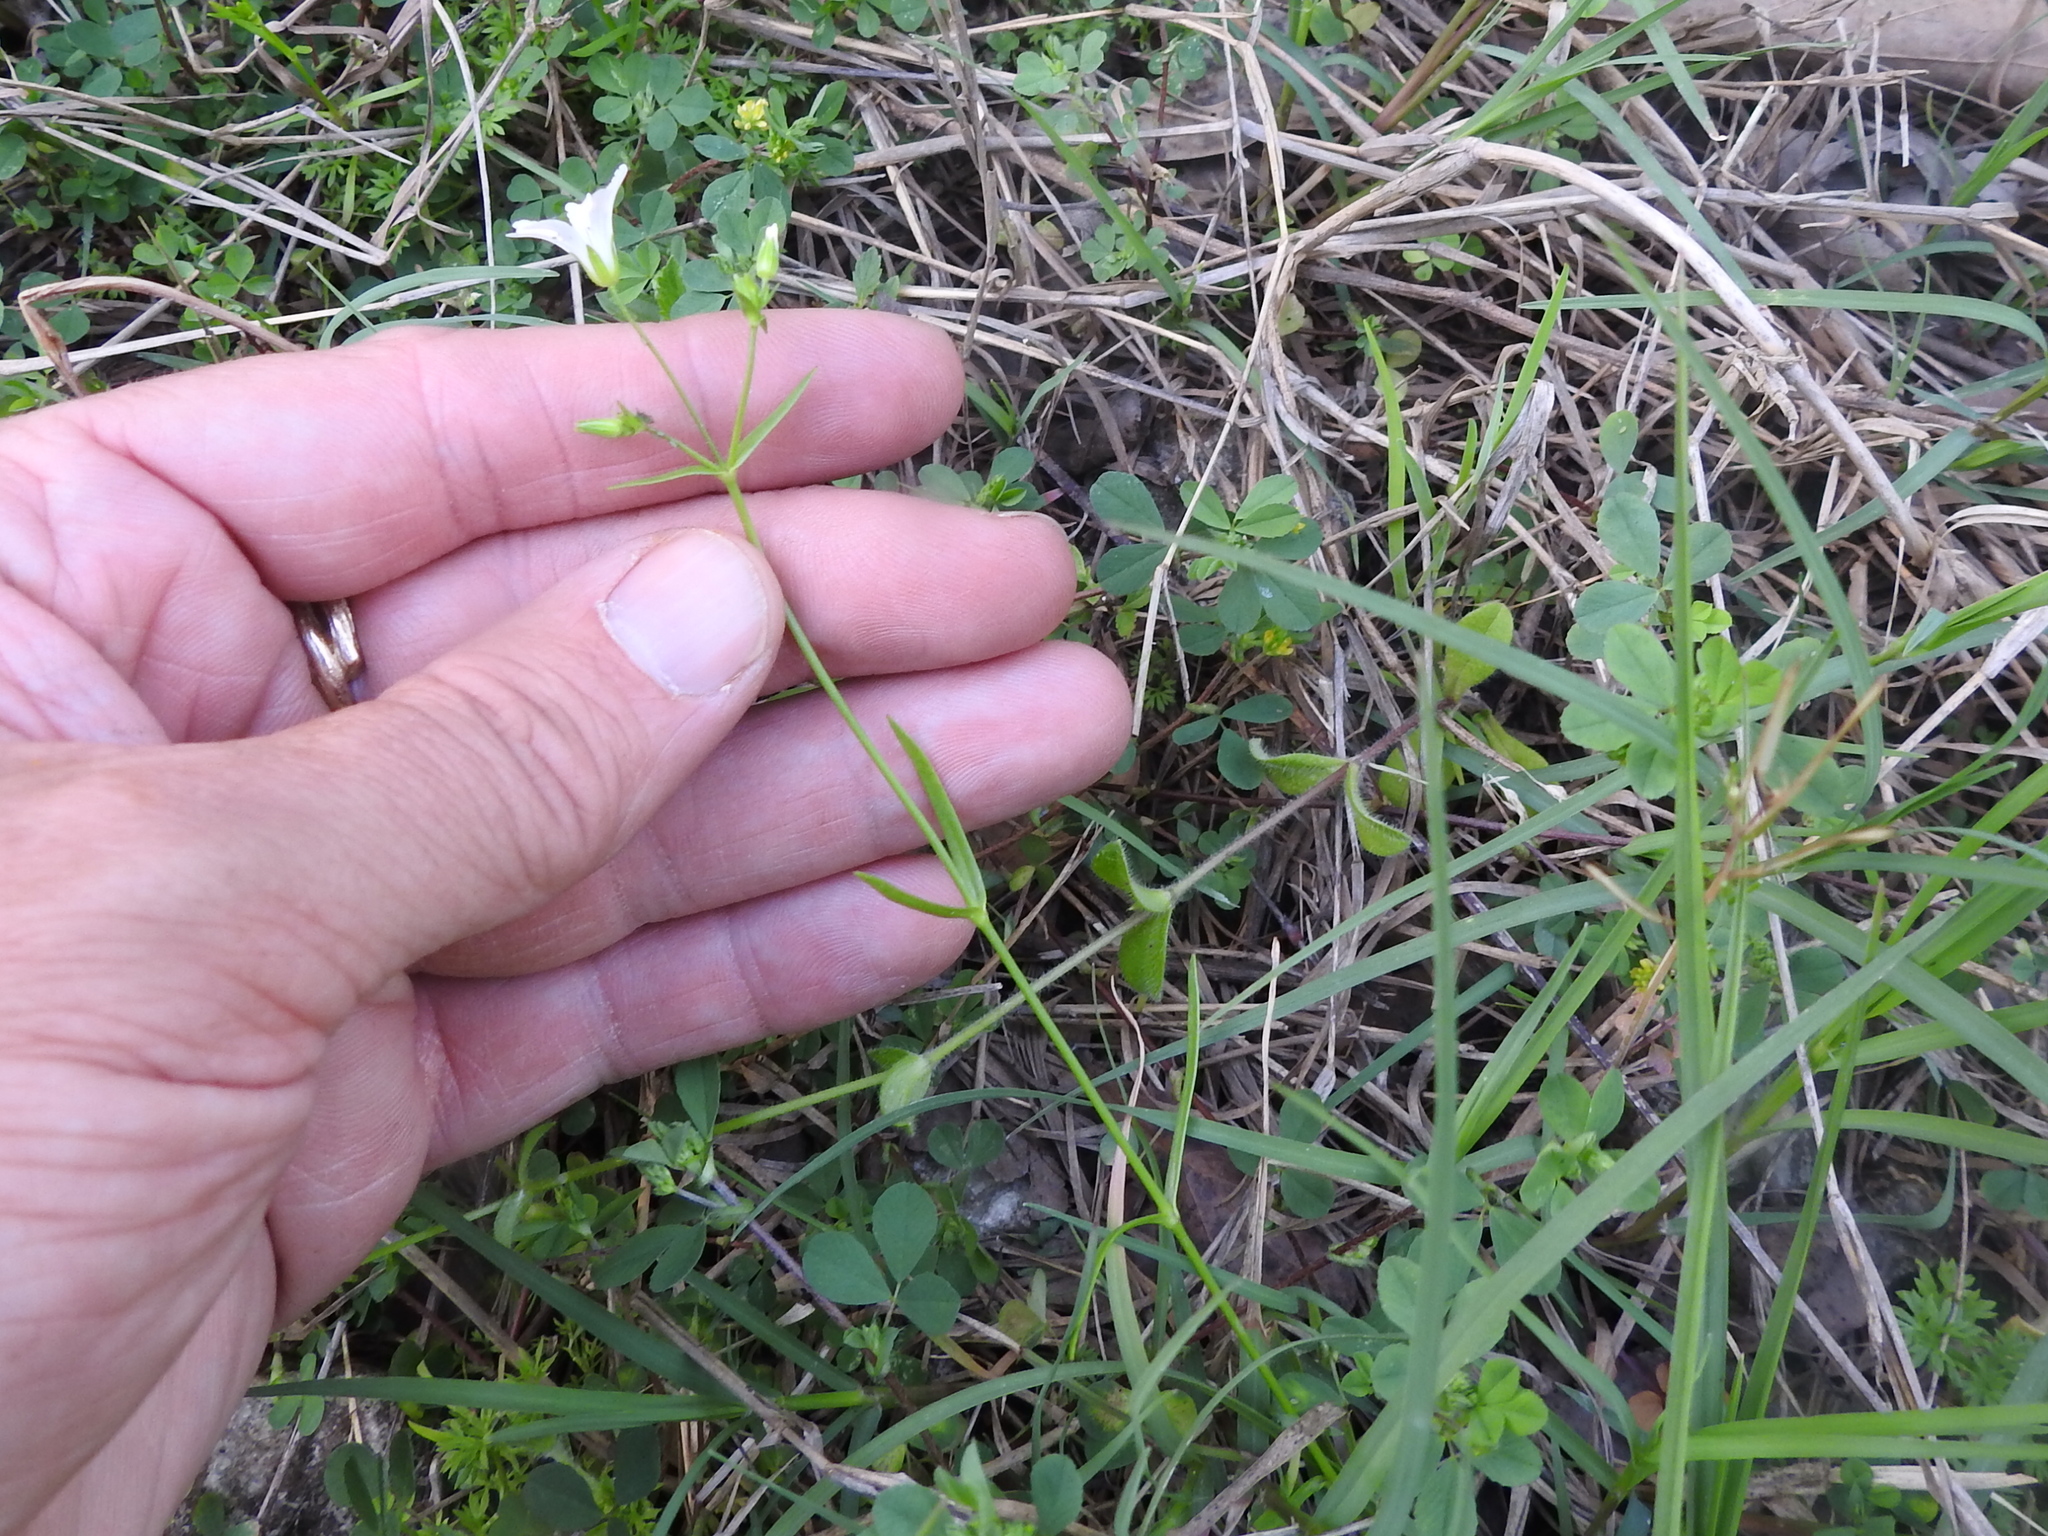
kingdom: Plantae
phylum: Tracheophyta
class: Magnoliopsida
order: Caryophyllales
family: Caryophyllaceae
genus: Mononeuria
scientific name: Mononeuria patula
